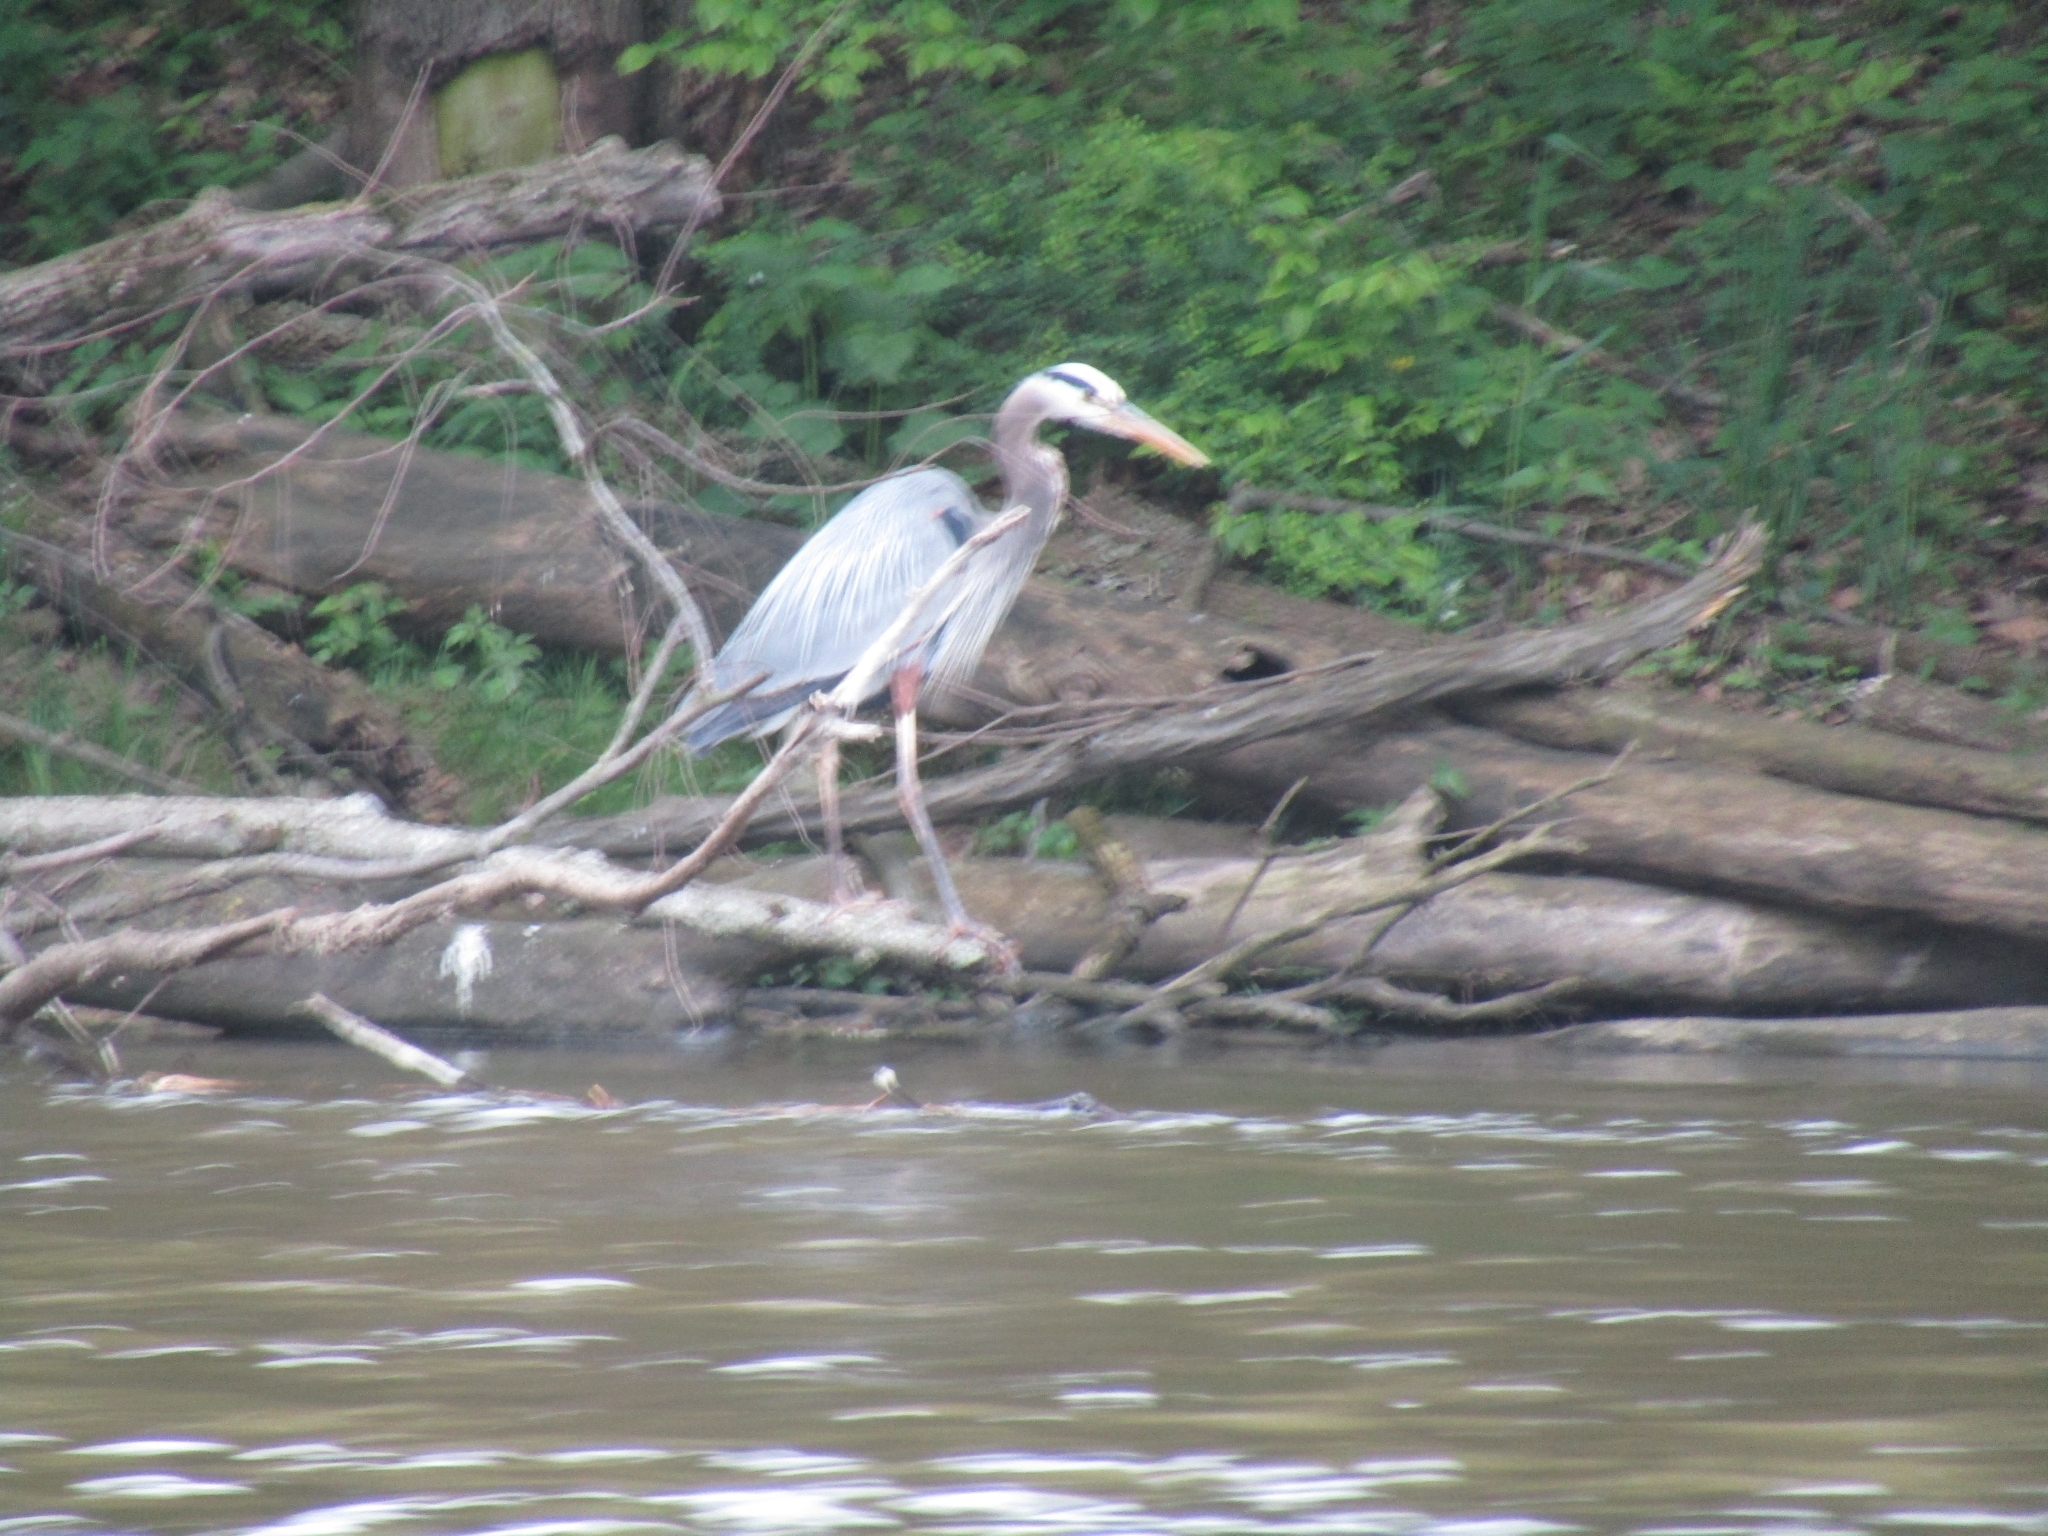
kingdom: Animalia
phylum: Chordata
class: Aves
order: Pelecaniformes
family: Ardeidae
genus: Ardea
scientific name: Ardea herodias
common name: Great blue heron
